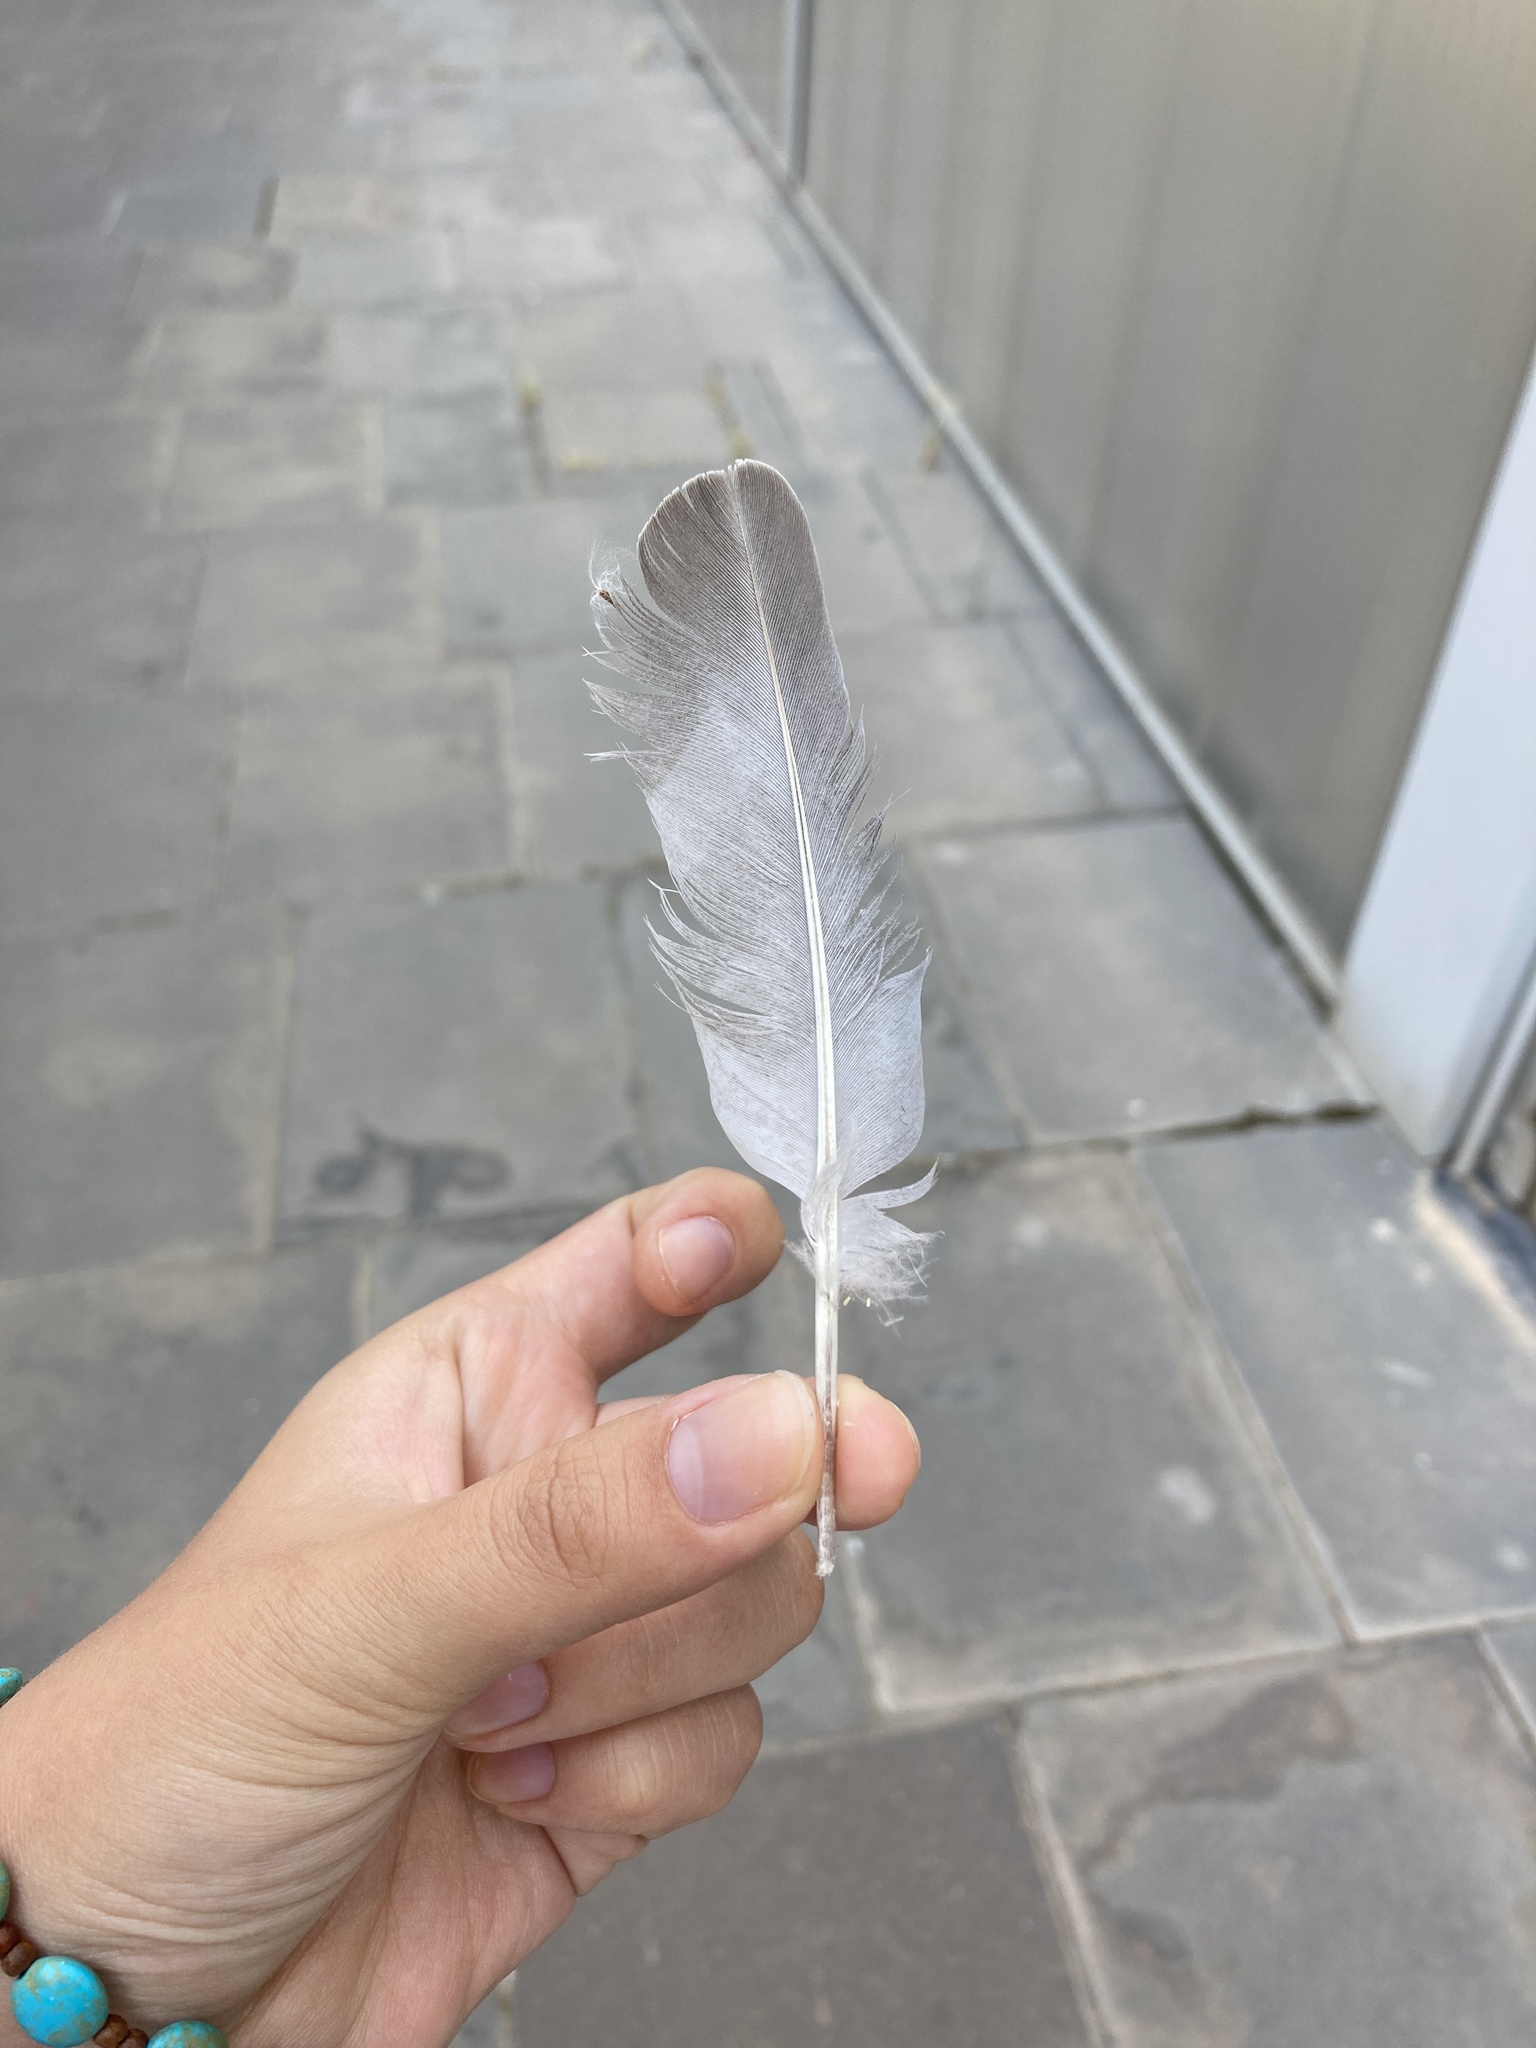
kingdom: Animalia
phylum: Chordata
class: Aves
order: Columbiformes
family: Columbidae
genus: Streptopelia
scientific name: Streptopelia decaocto
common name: Eurasian collared dove
